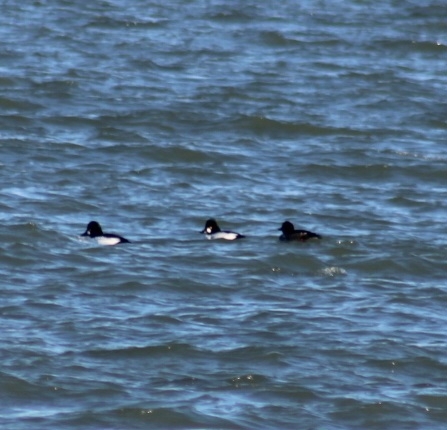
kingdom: Animalia
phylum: Chordata
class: Aves
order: Anseriformes
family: Anatidae
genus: Bucephala
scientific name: Bucephala clangula
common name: Common goldeneye
